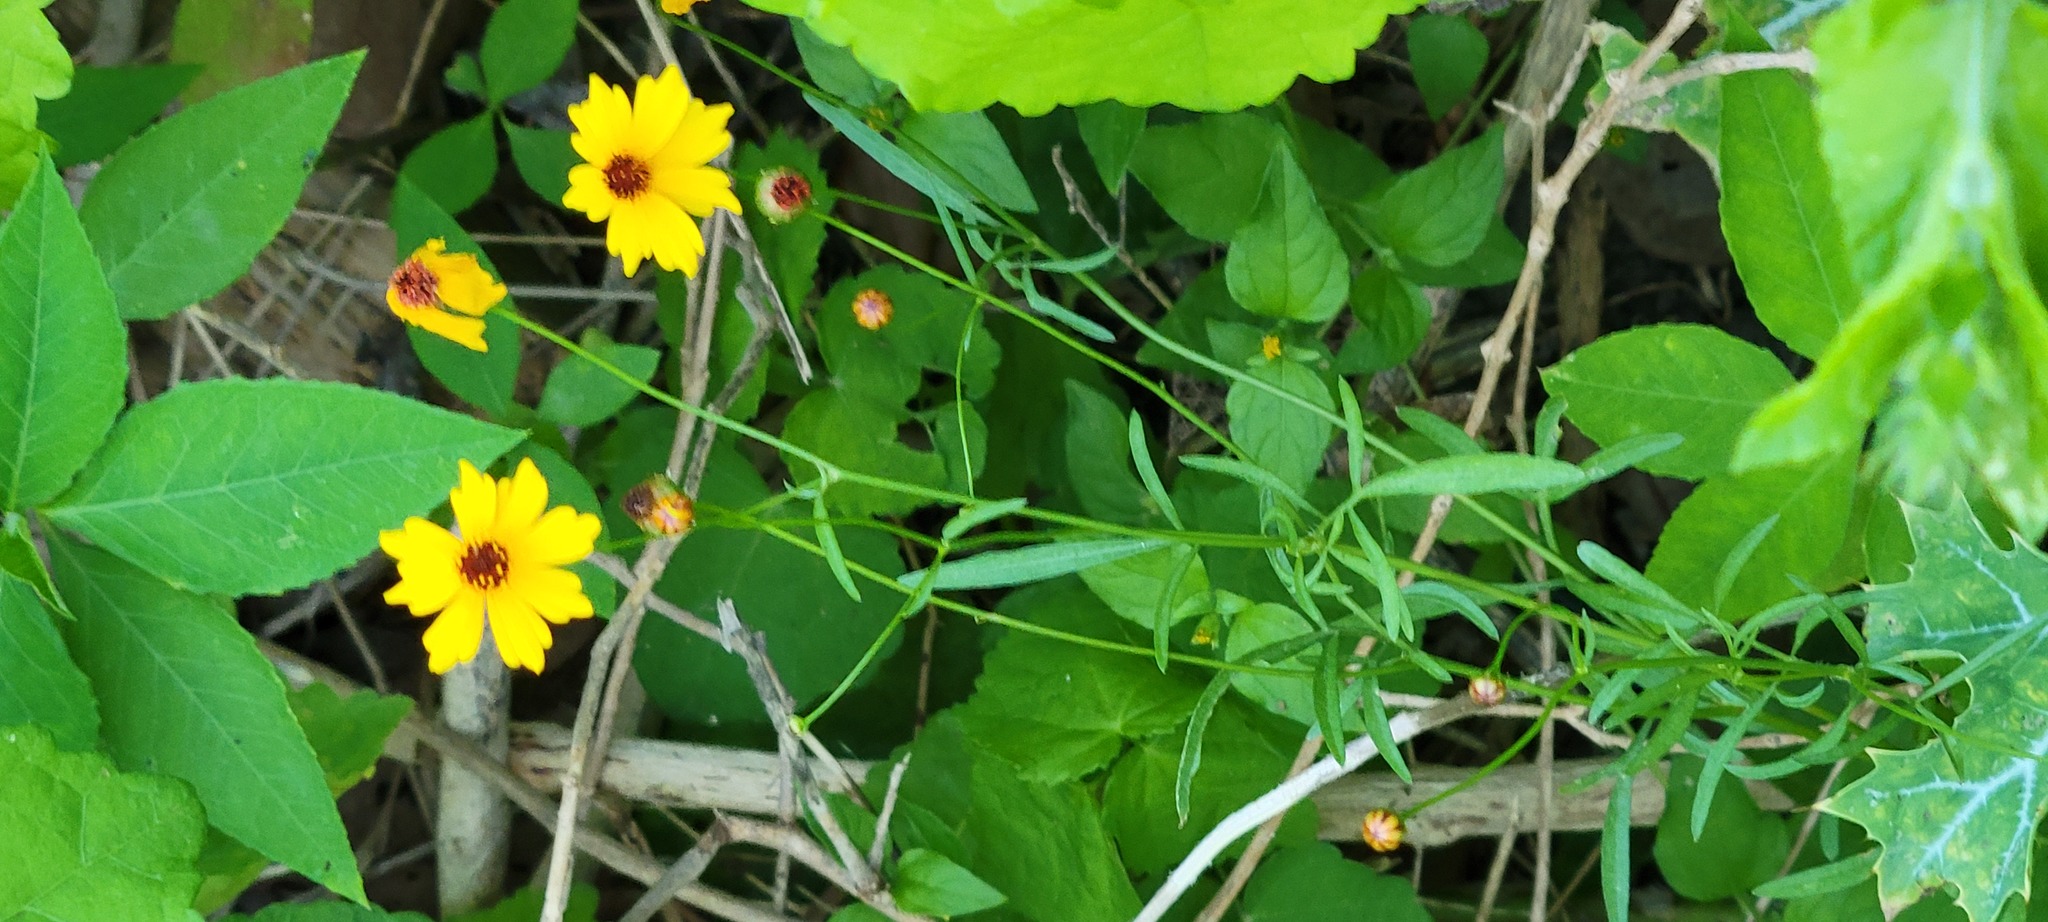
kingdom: Plantae
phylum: Tracheophyta
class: Magnoliopsida
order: Asterales
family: Asteraceae
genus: Coreopsis
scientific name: Coreopsis basalis
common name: Golden-mane coreopsis
